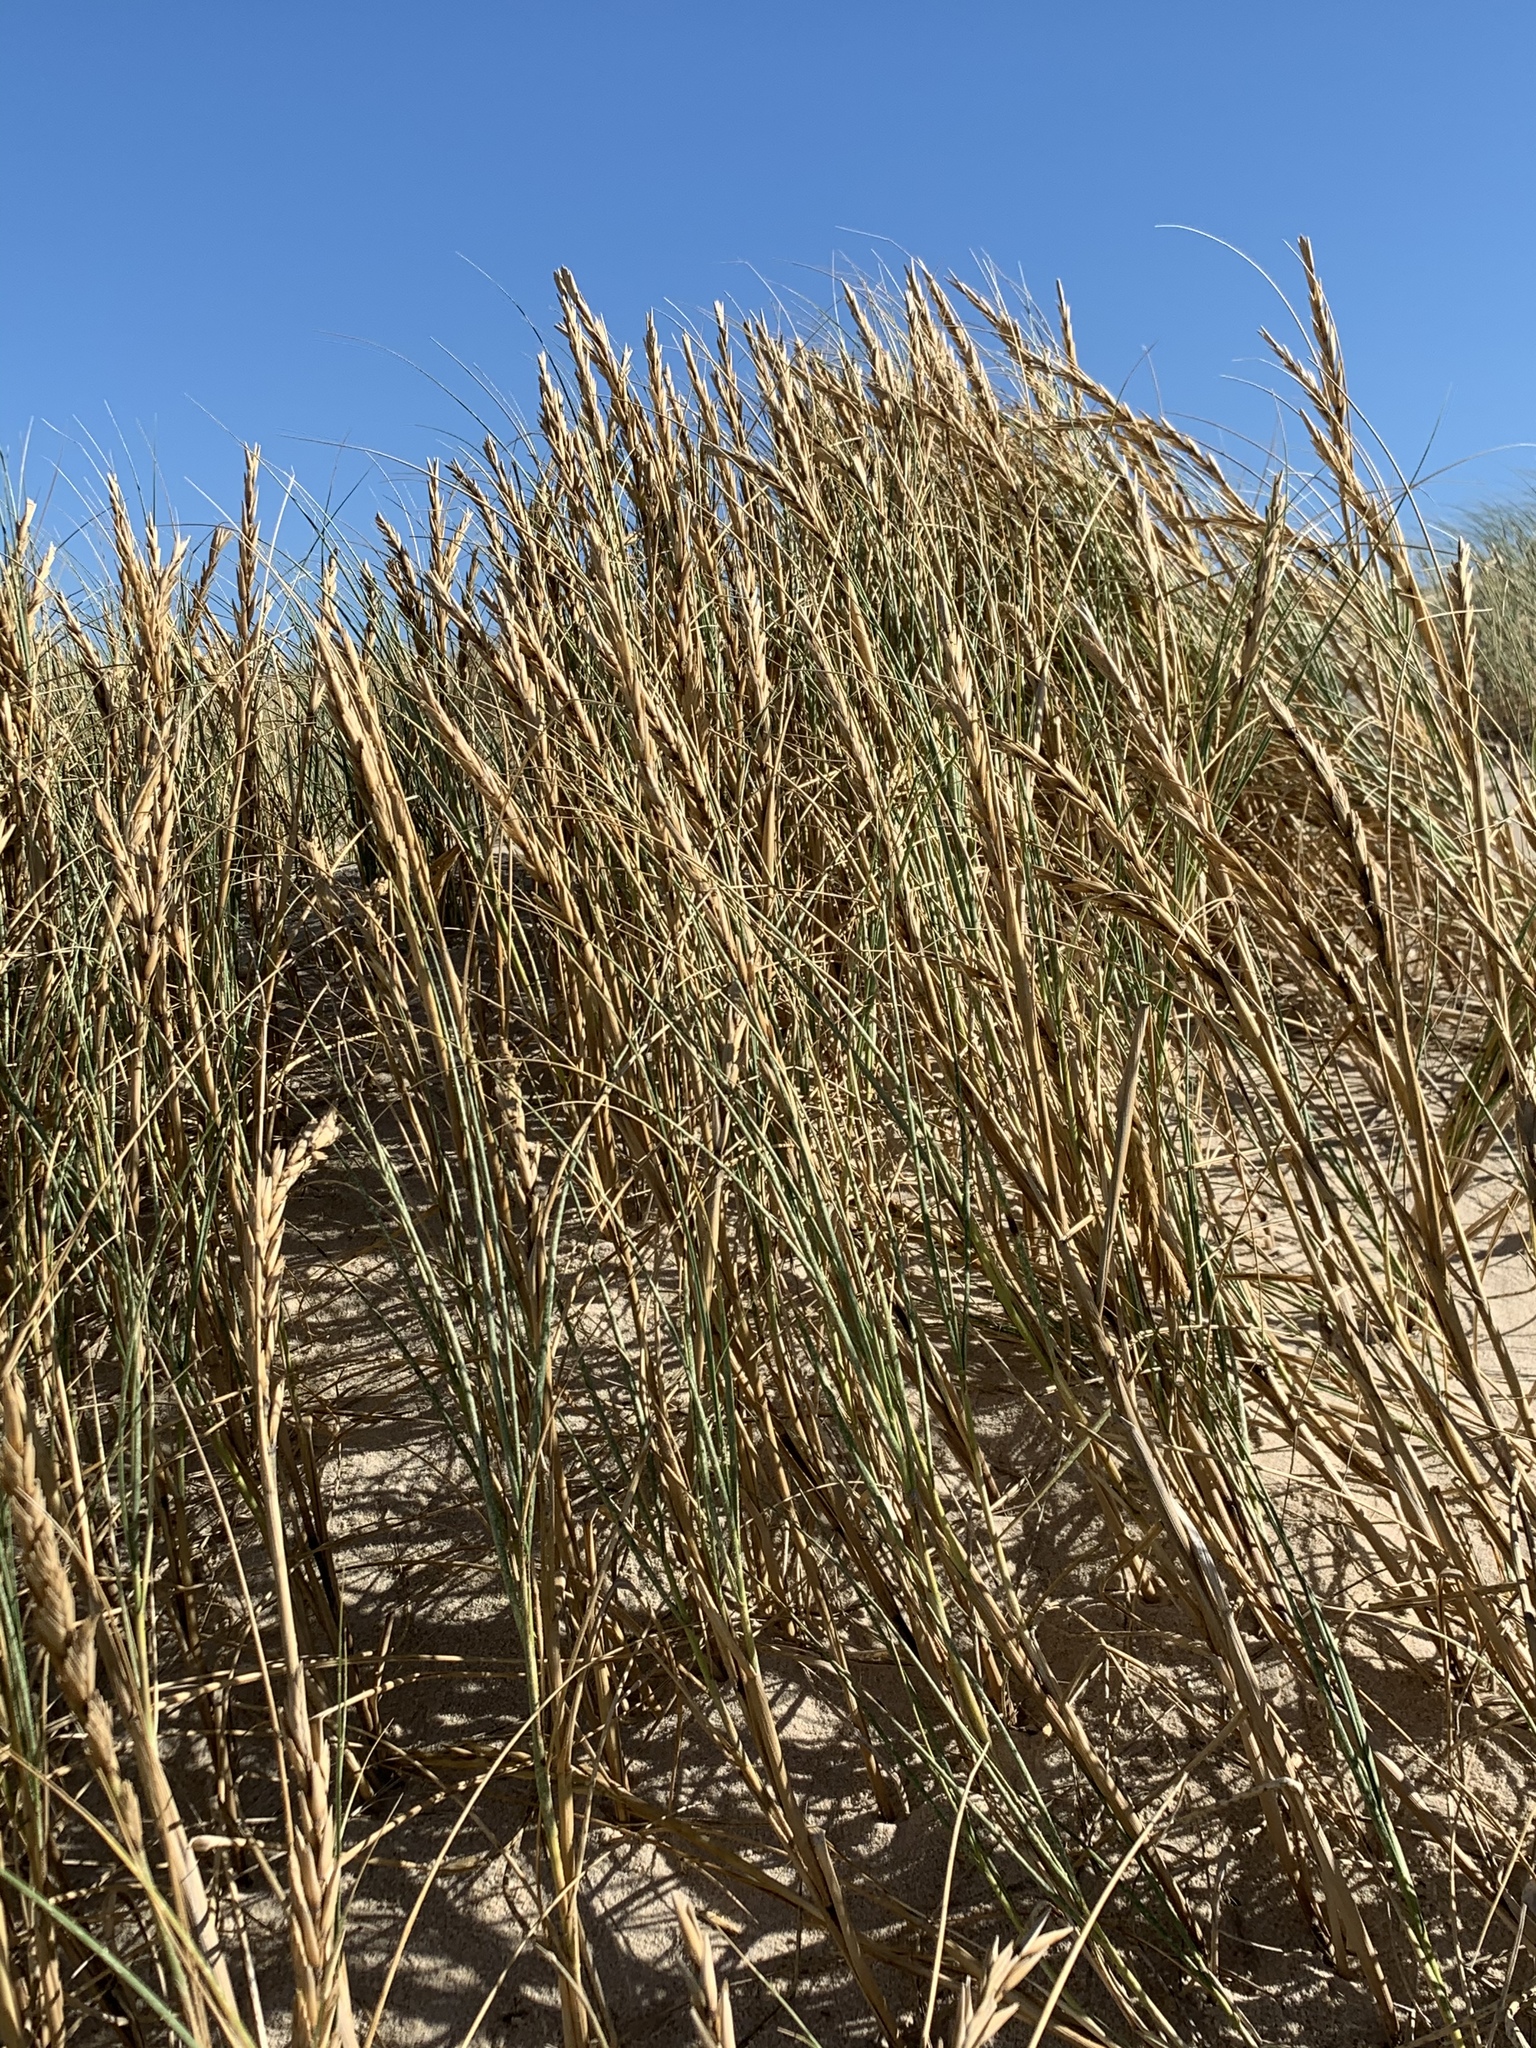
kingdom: Plantae
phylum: Tracheophyta
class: Liliopsida
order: Poales
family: Poaceae
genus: Thinopyrum
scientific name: Thinopyrum distichum
